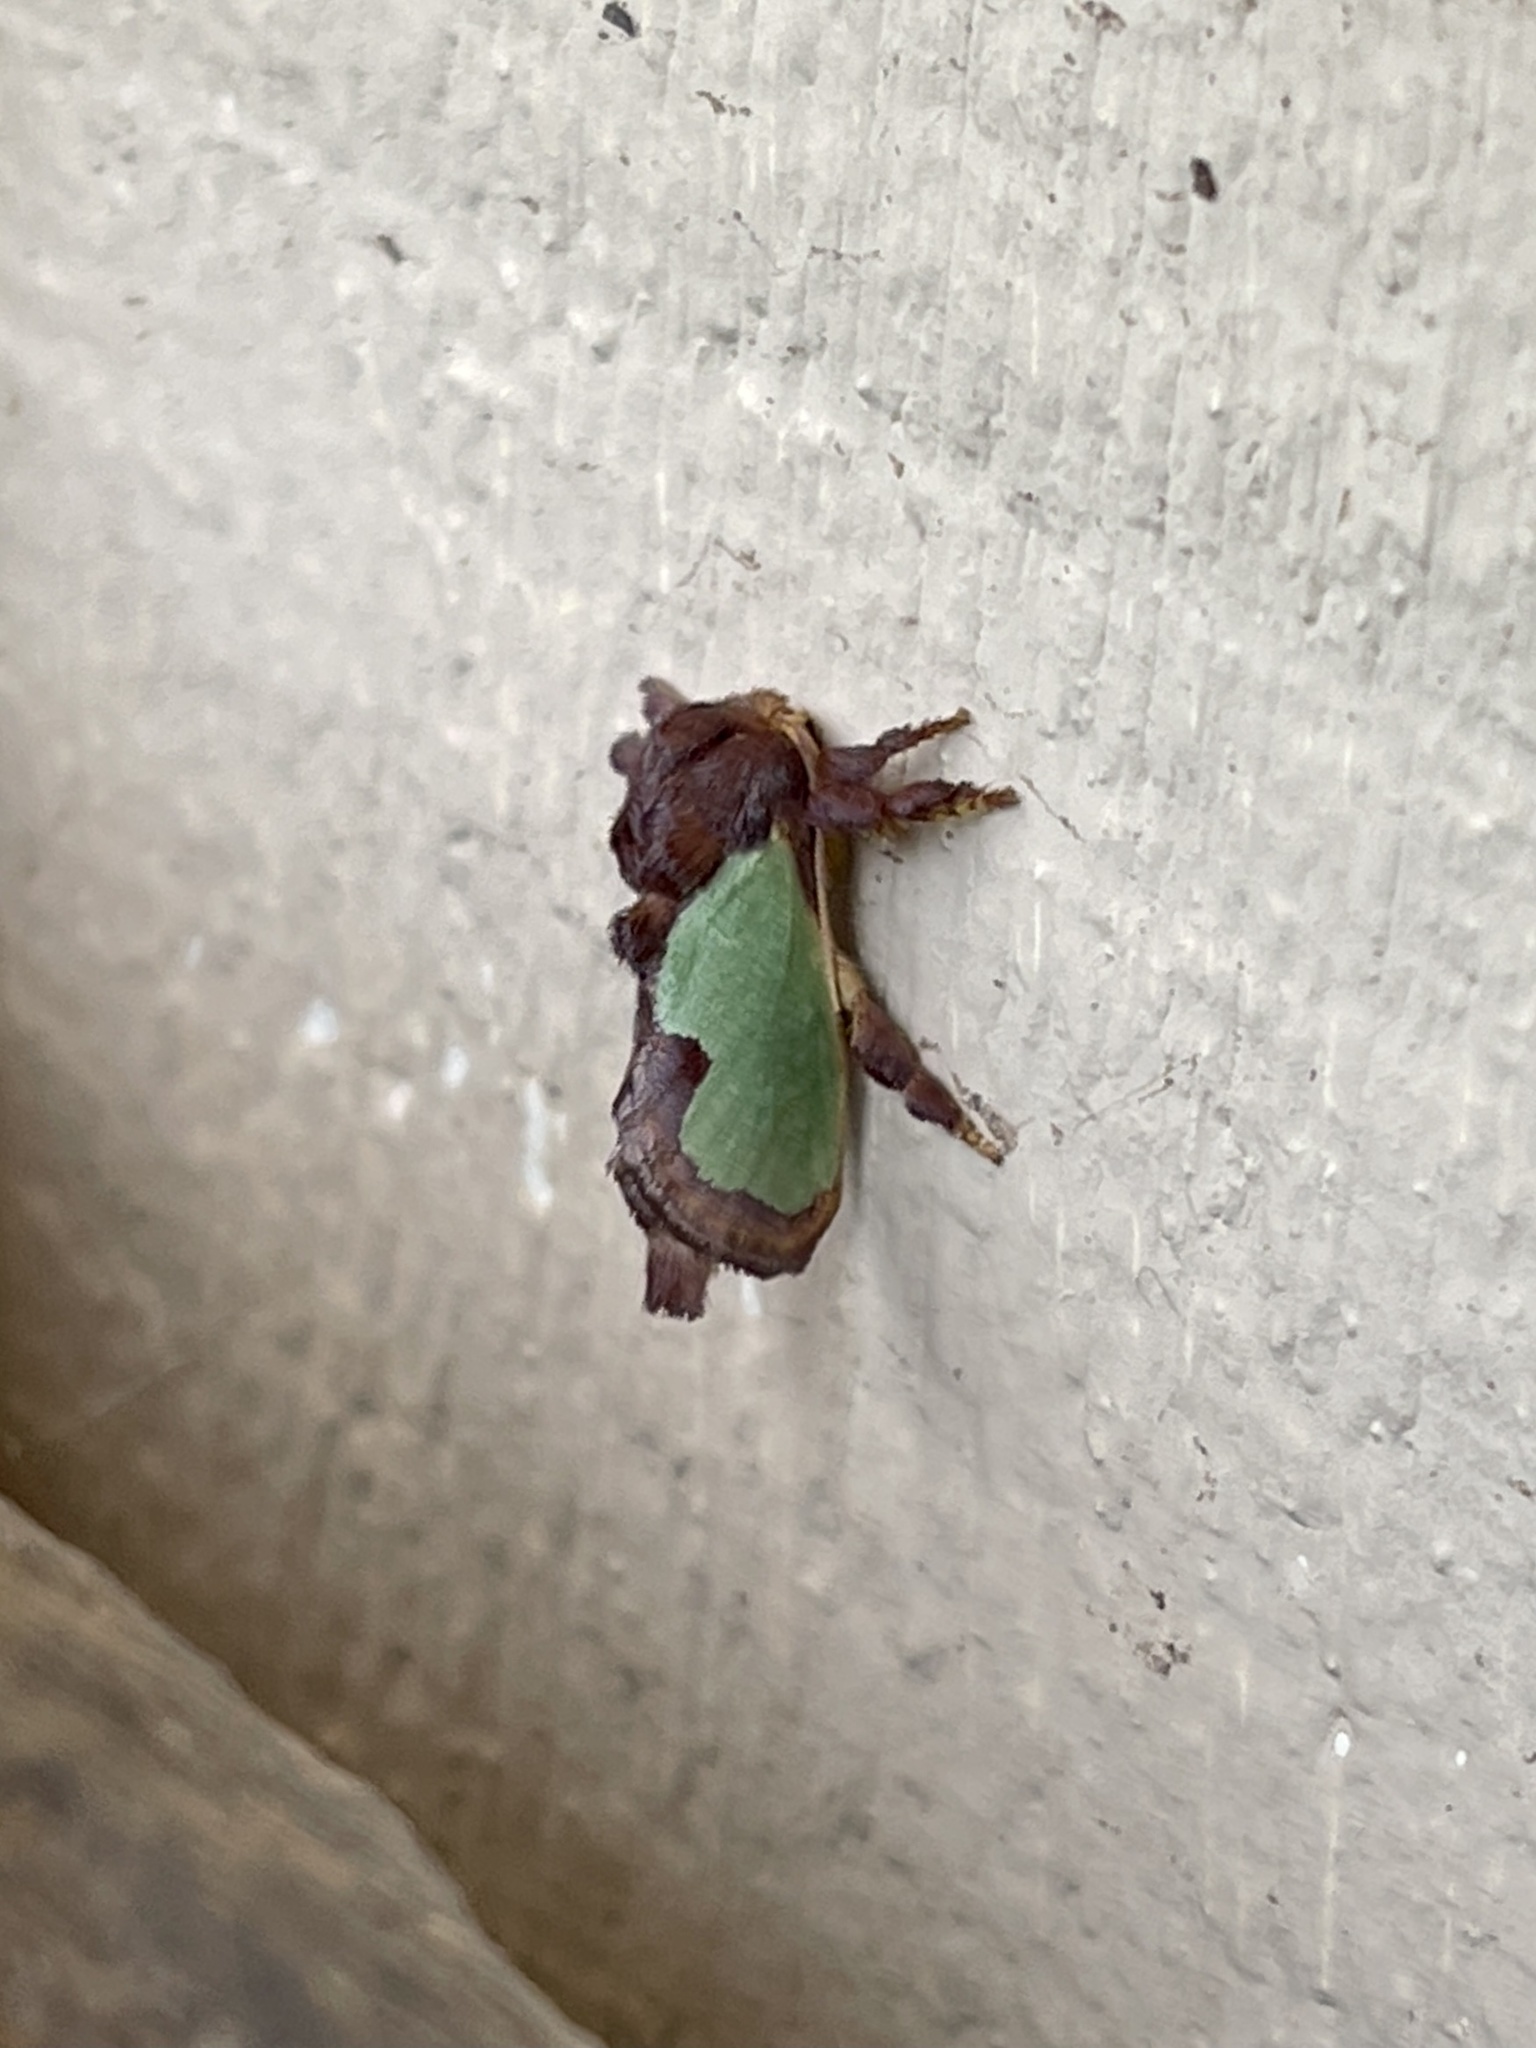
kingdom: Animalia
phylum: Arthropoda
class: Insecta
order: Lepidoptera
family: Limacodidae
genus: Euclea
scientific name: Euclea incisa
